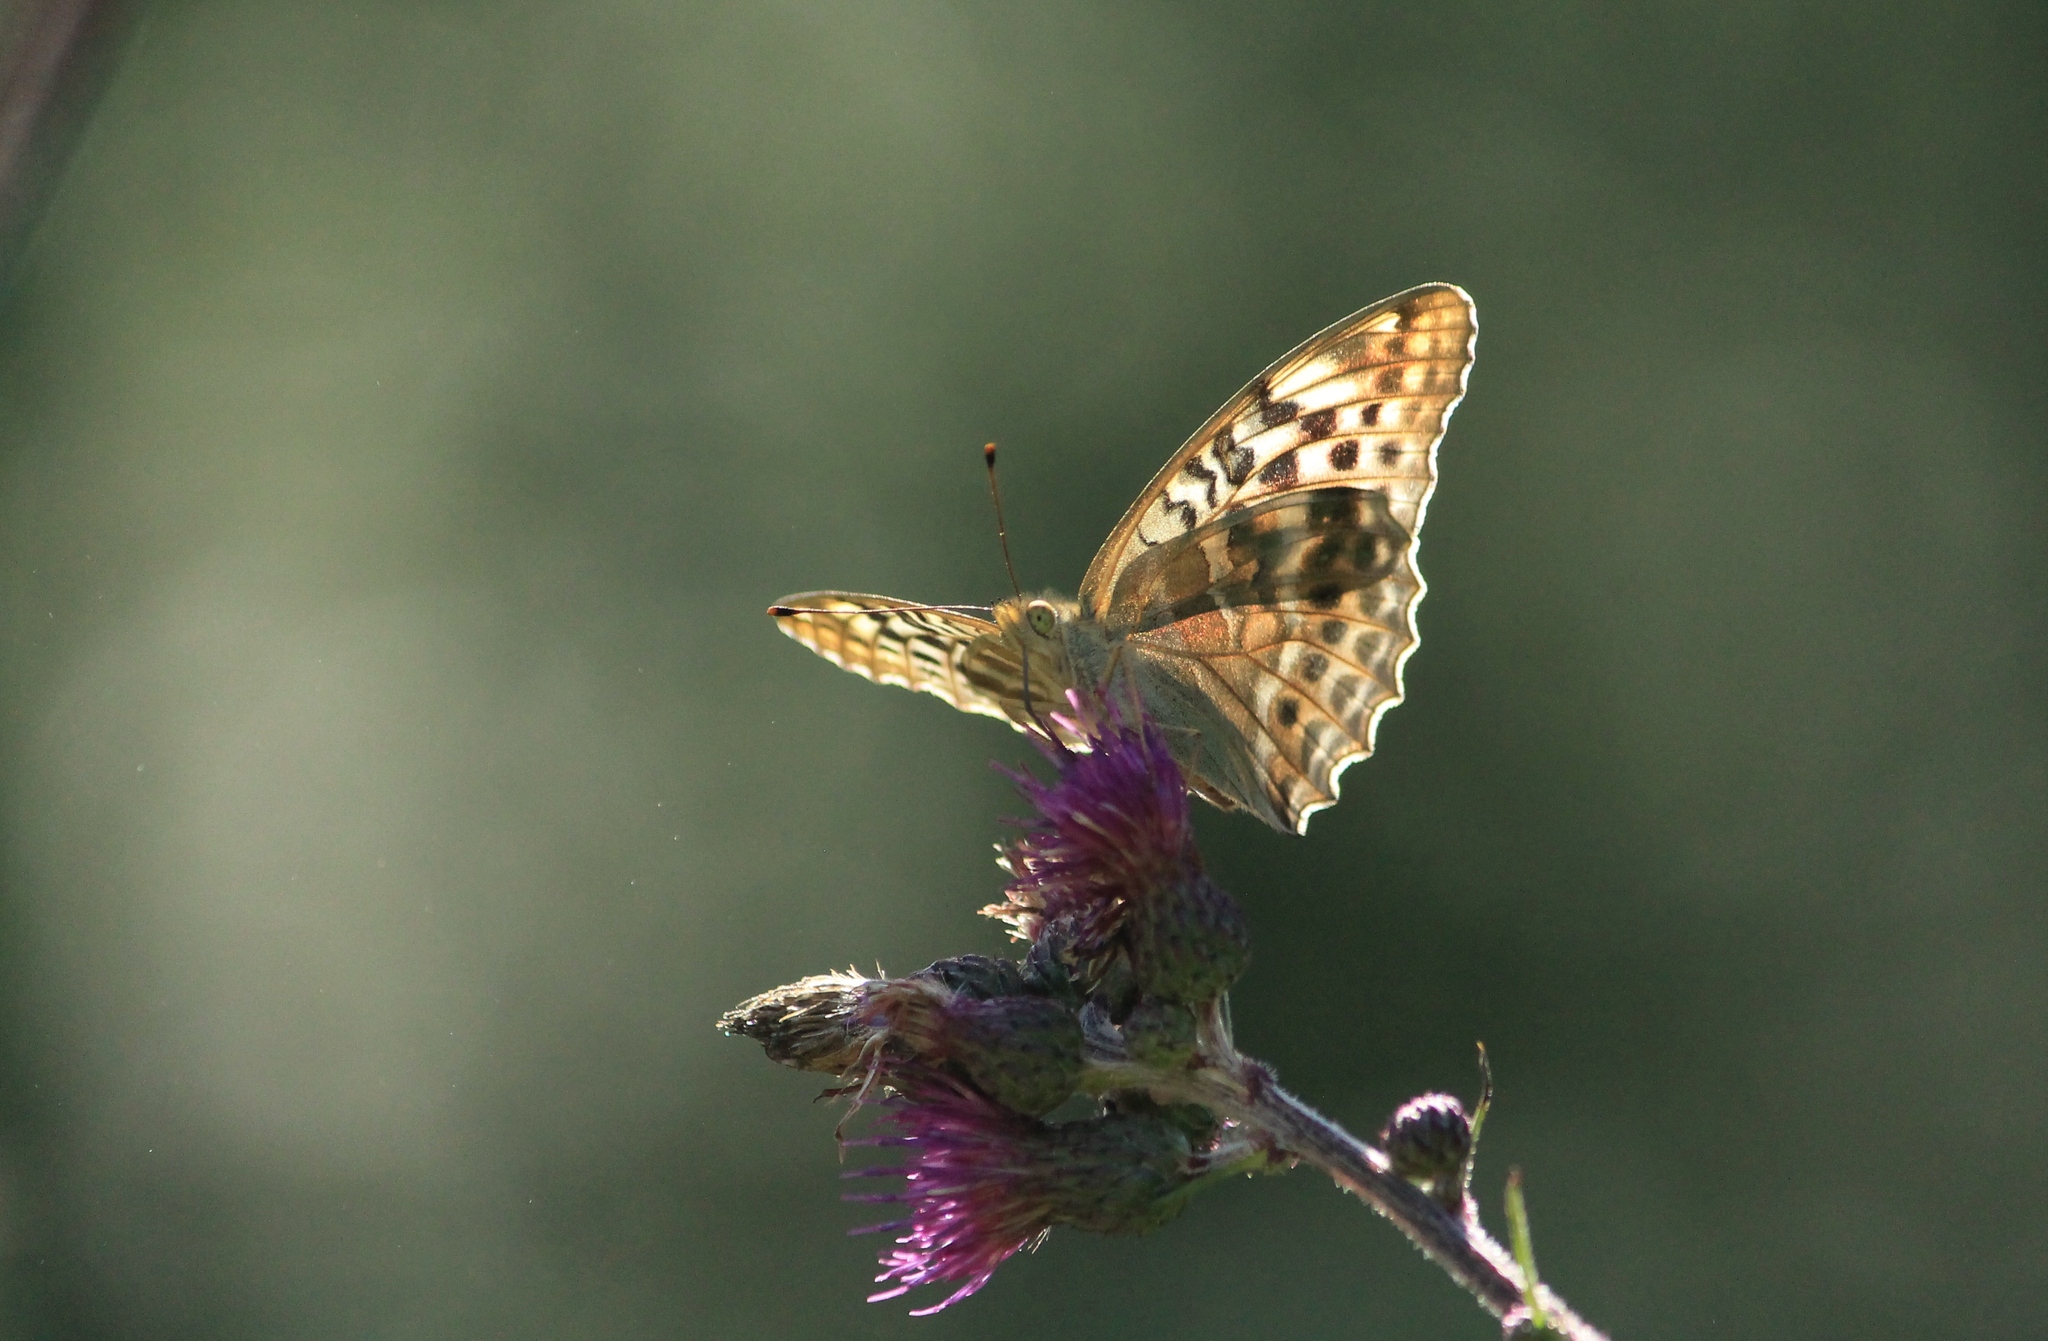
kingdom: Animalia
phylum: Arthropoda
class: Insecta
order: Lepidoptera
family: Nymphalidae
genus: Argynnis
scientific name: Argynnis paphia
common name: Silver-washed fritillary
